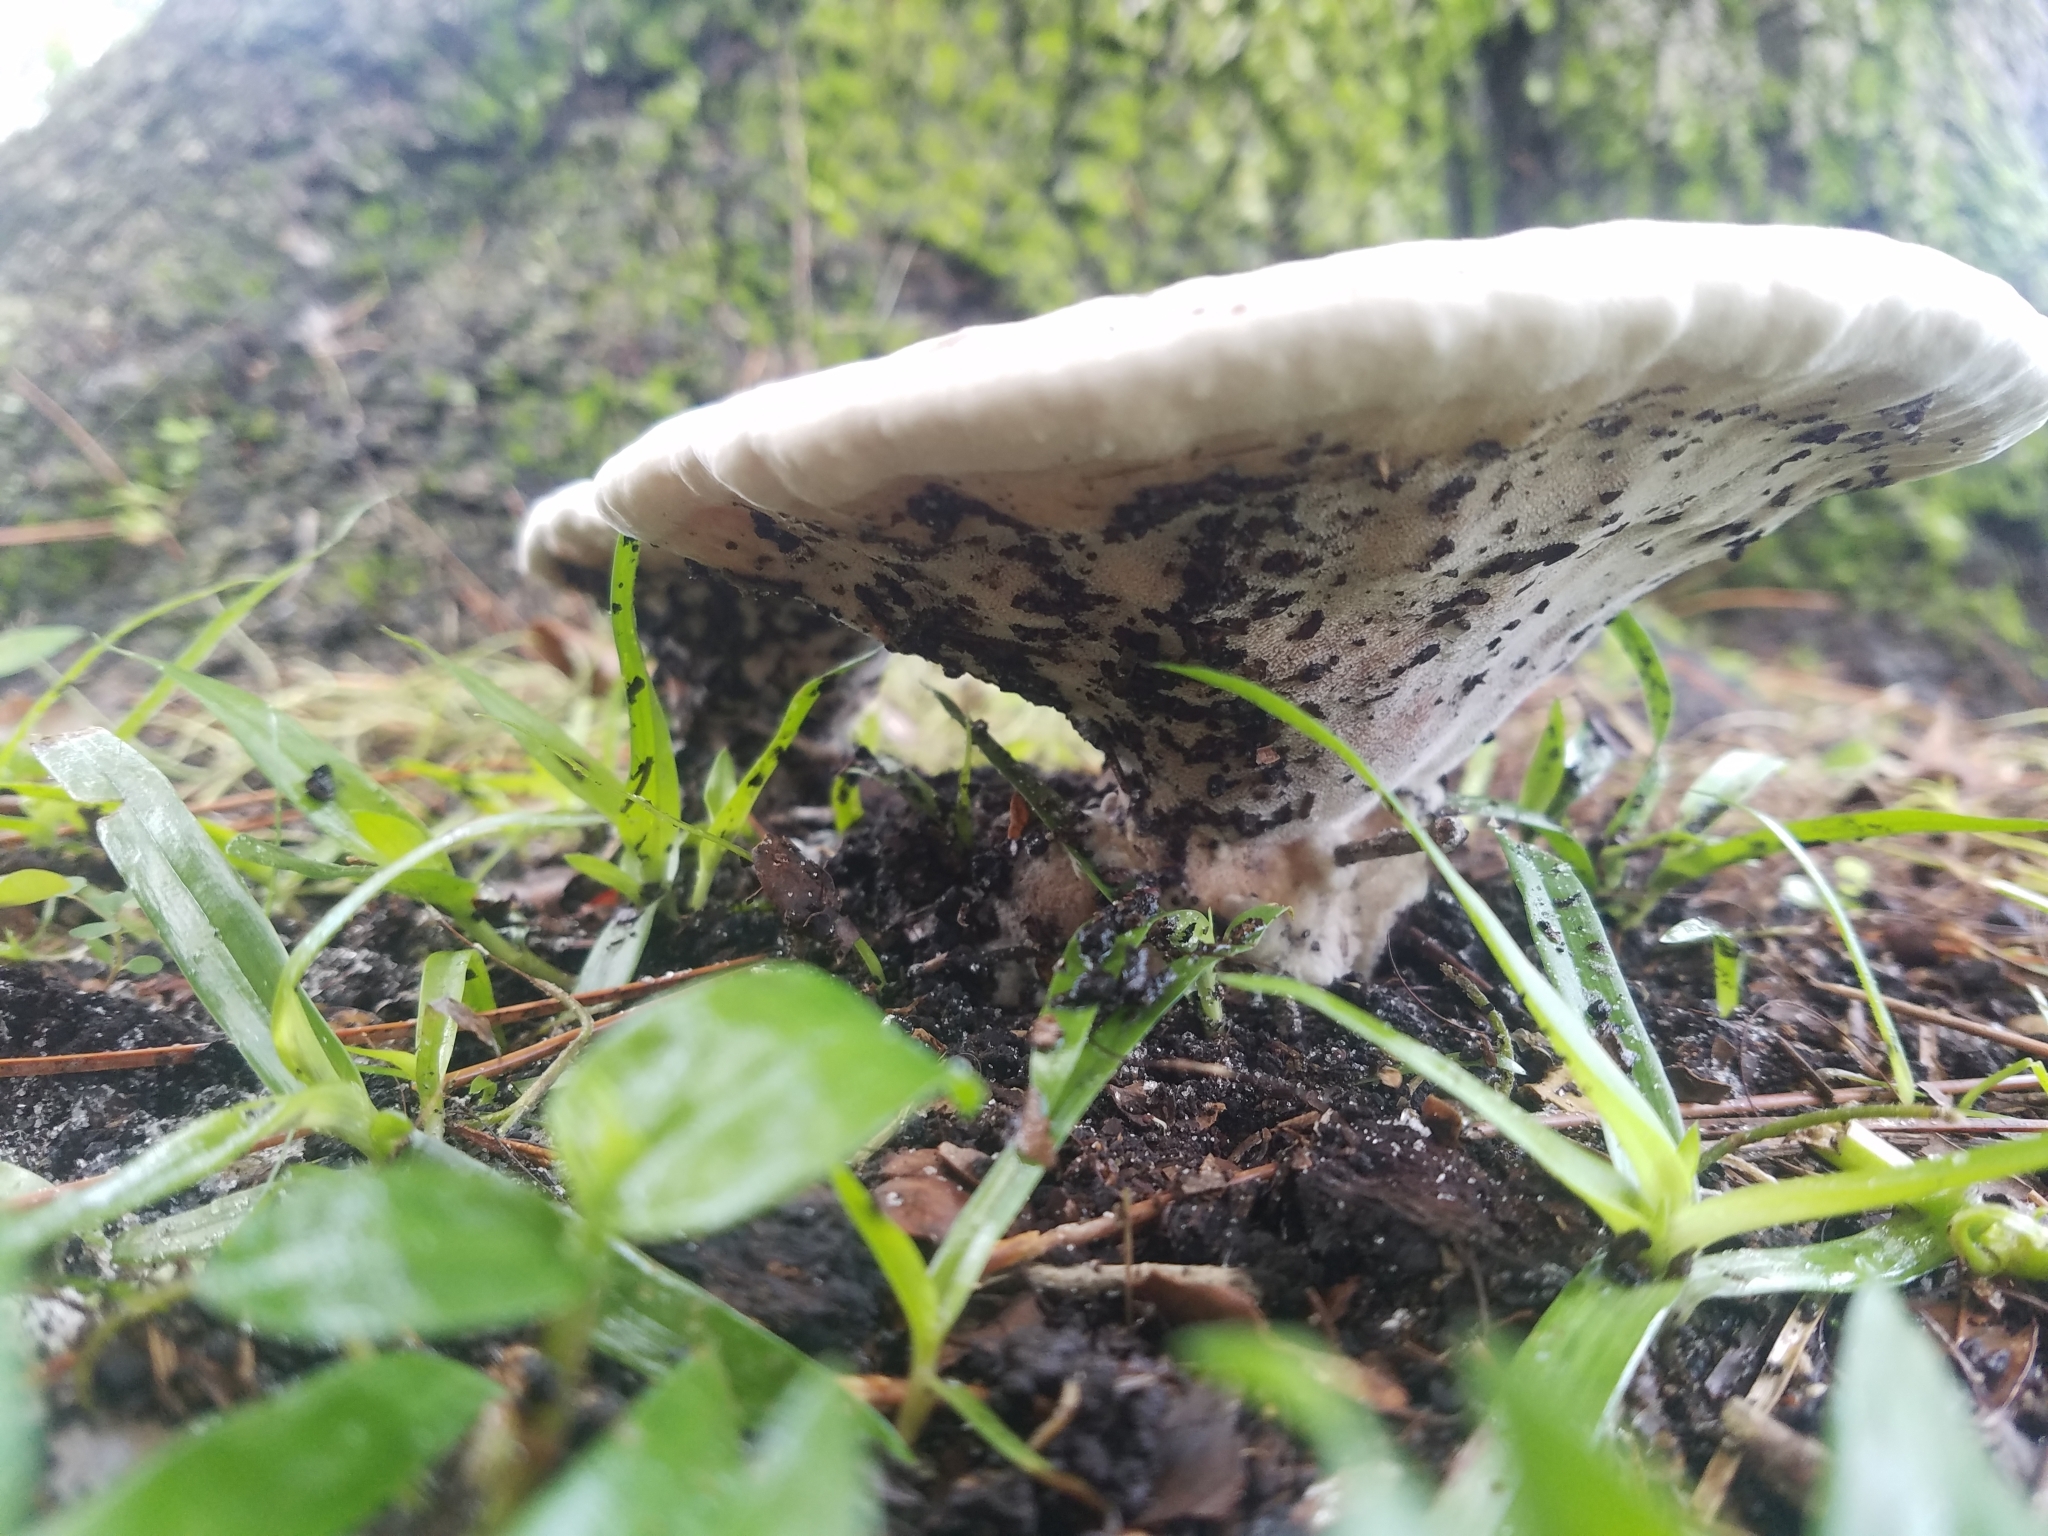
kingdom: Fungi
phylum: Basidiomycota
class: Agaricomycetes
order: Polyporales
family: Laetiporaceae
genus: Berkcurtia
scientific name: Berkcurtia persicina
